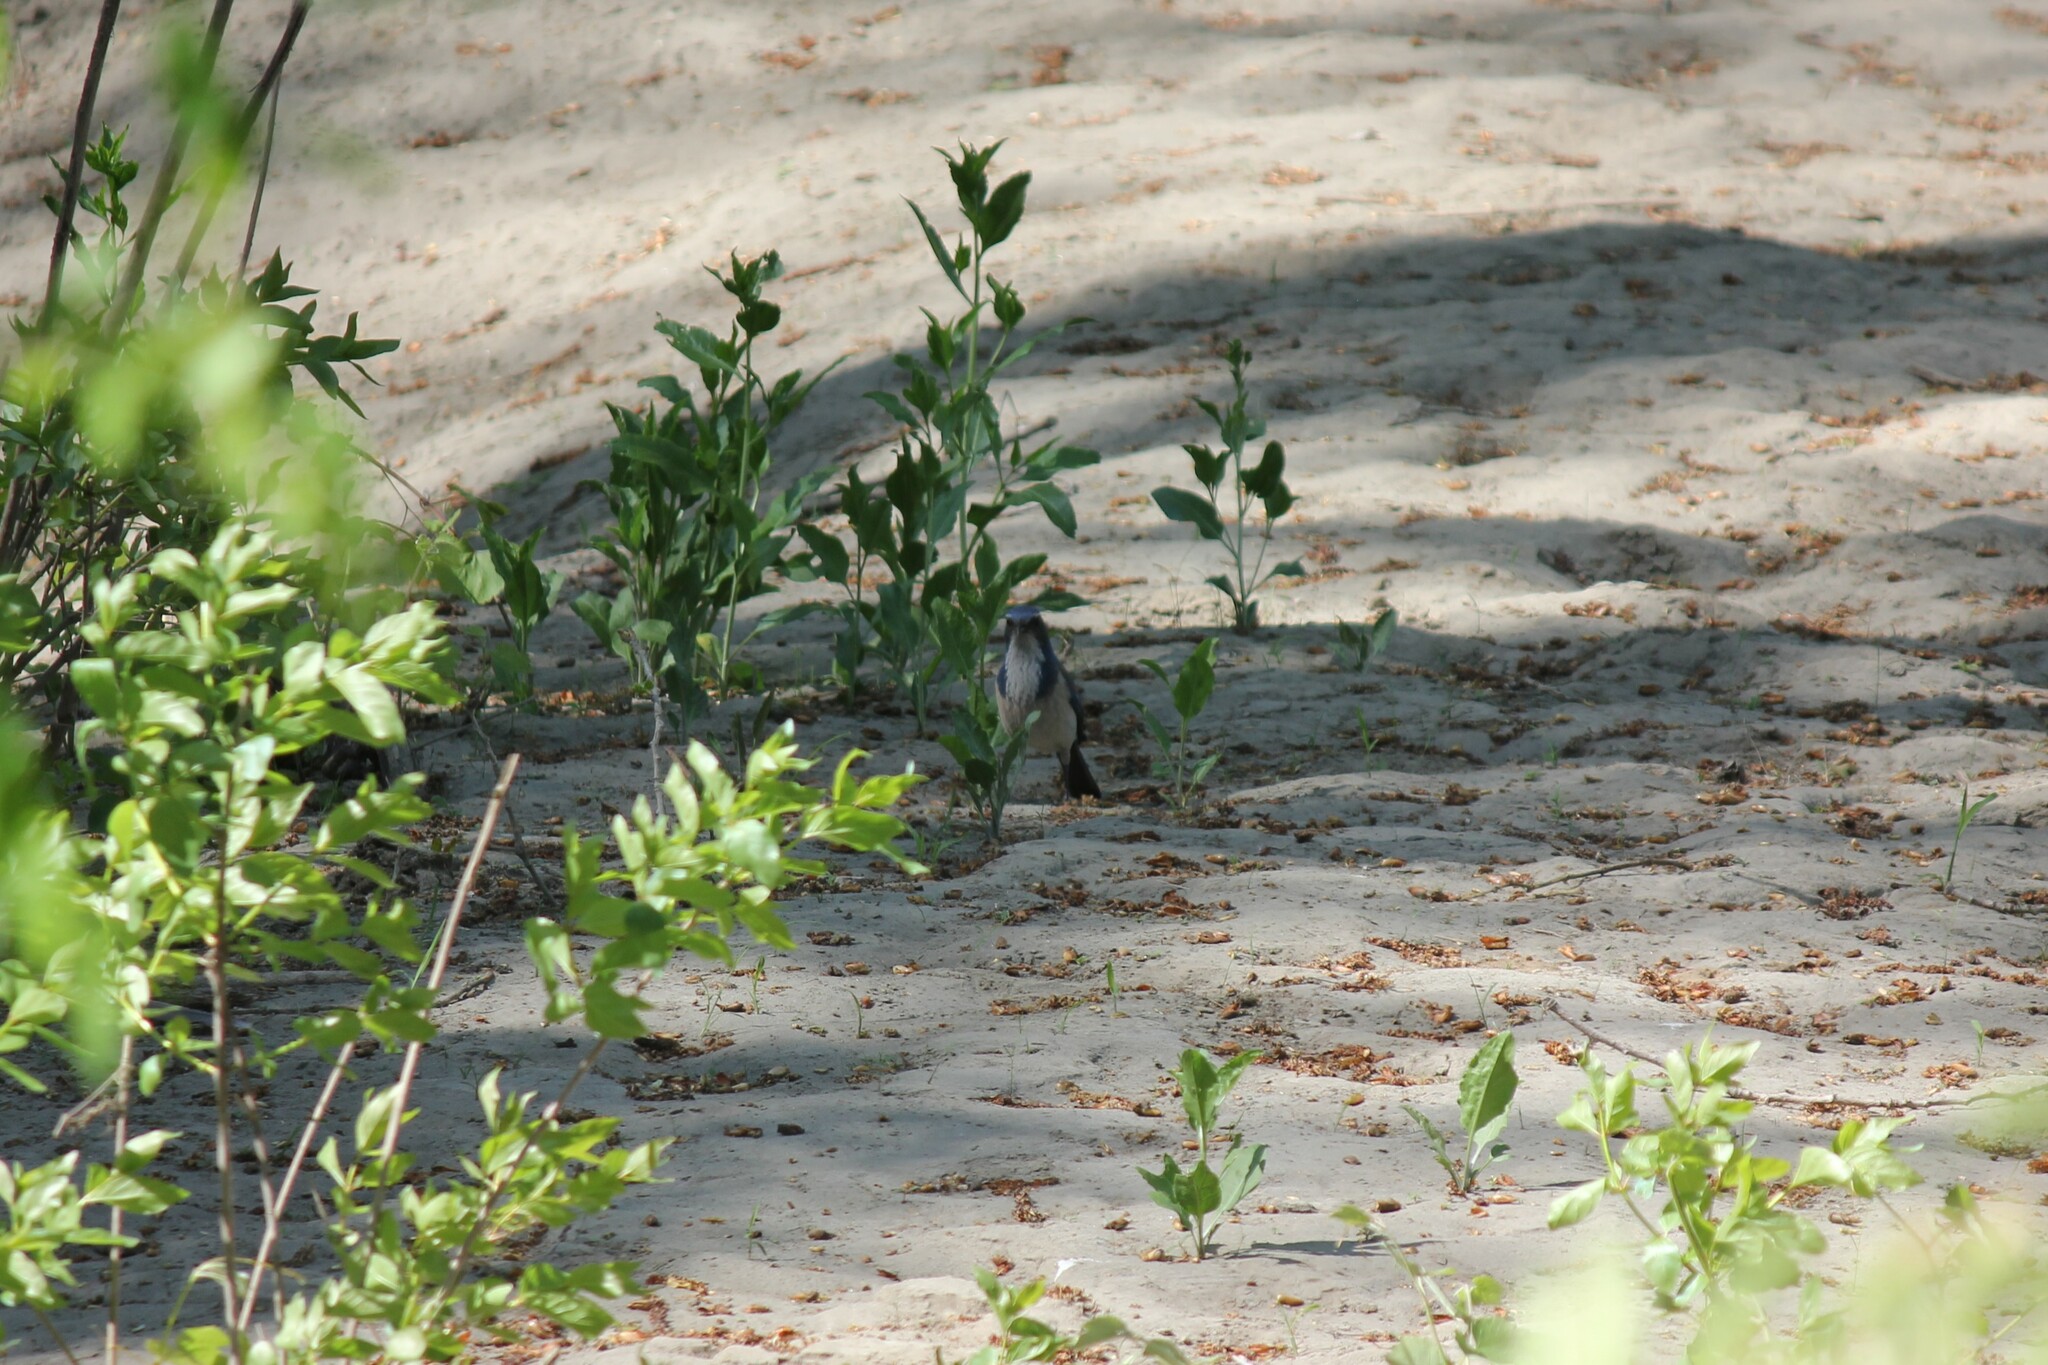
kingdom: Animalia
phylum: Chordata
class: Aves
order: Passeriformes
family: Corvidae
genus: Aphelocoma
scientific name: Aphelocoma californica
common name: California scrub-jay
